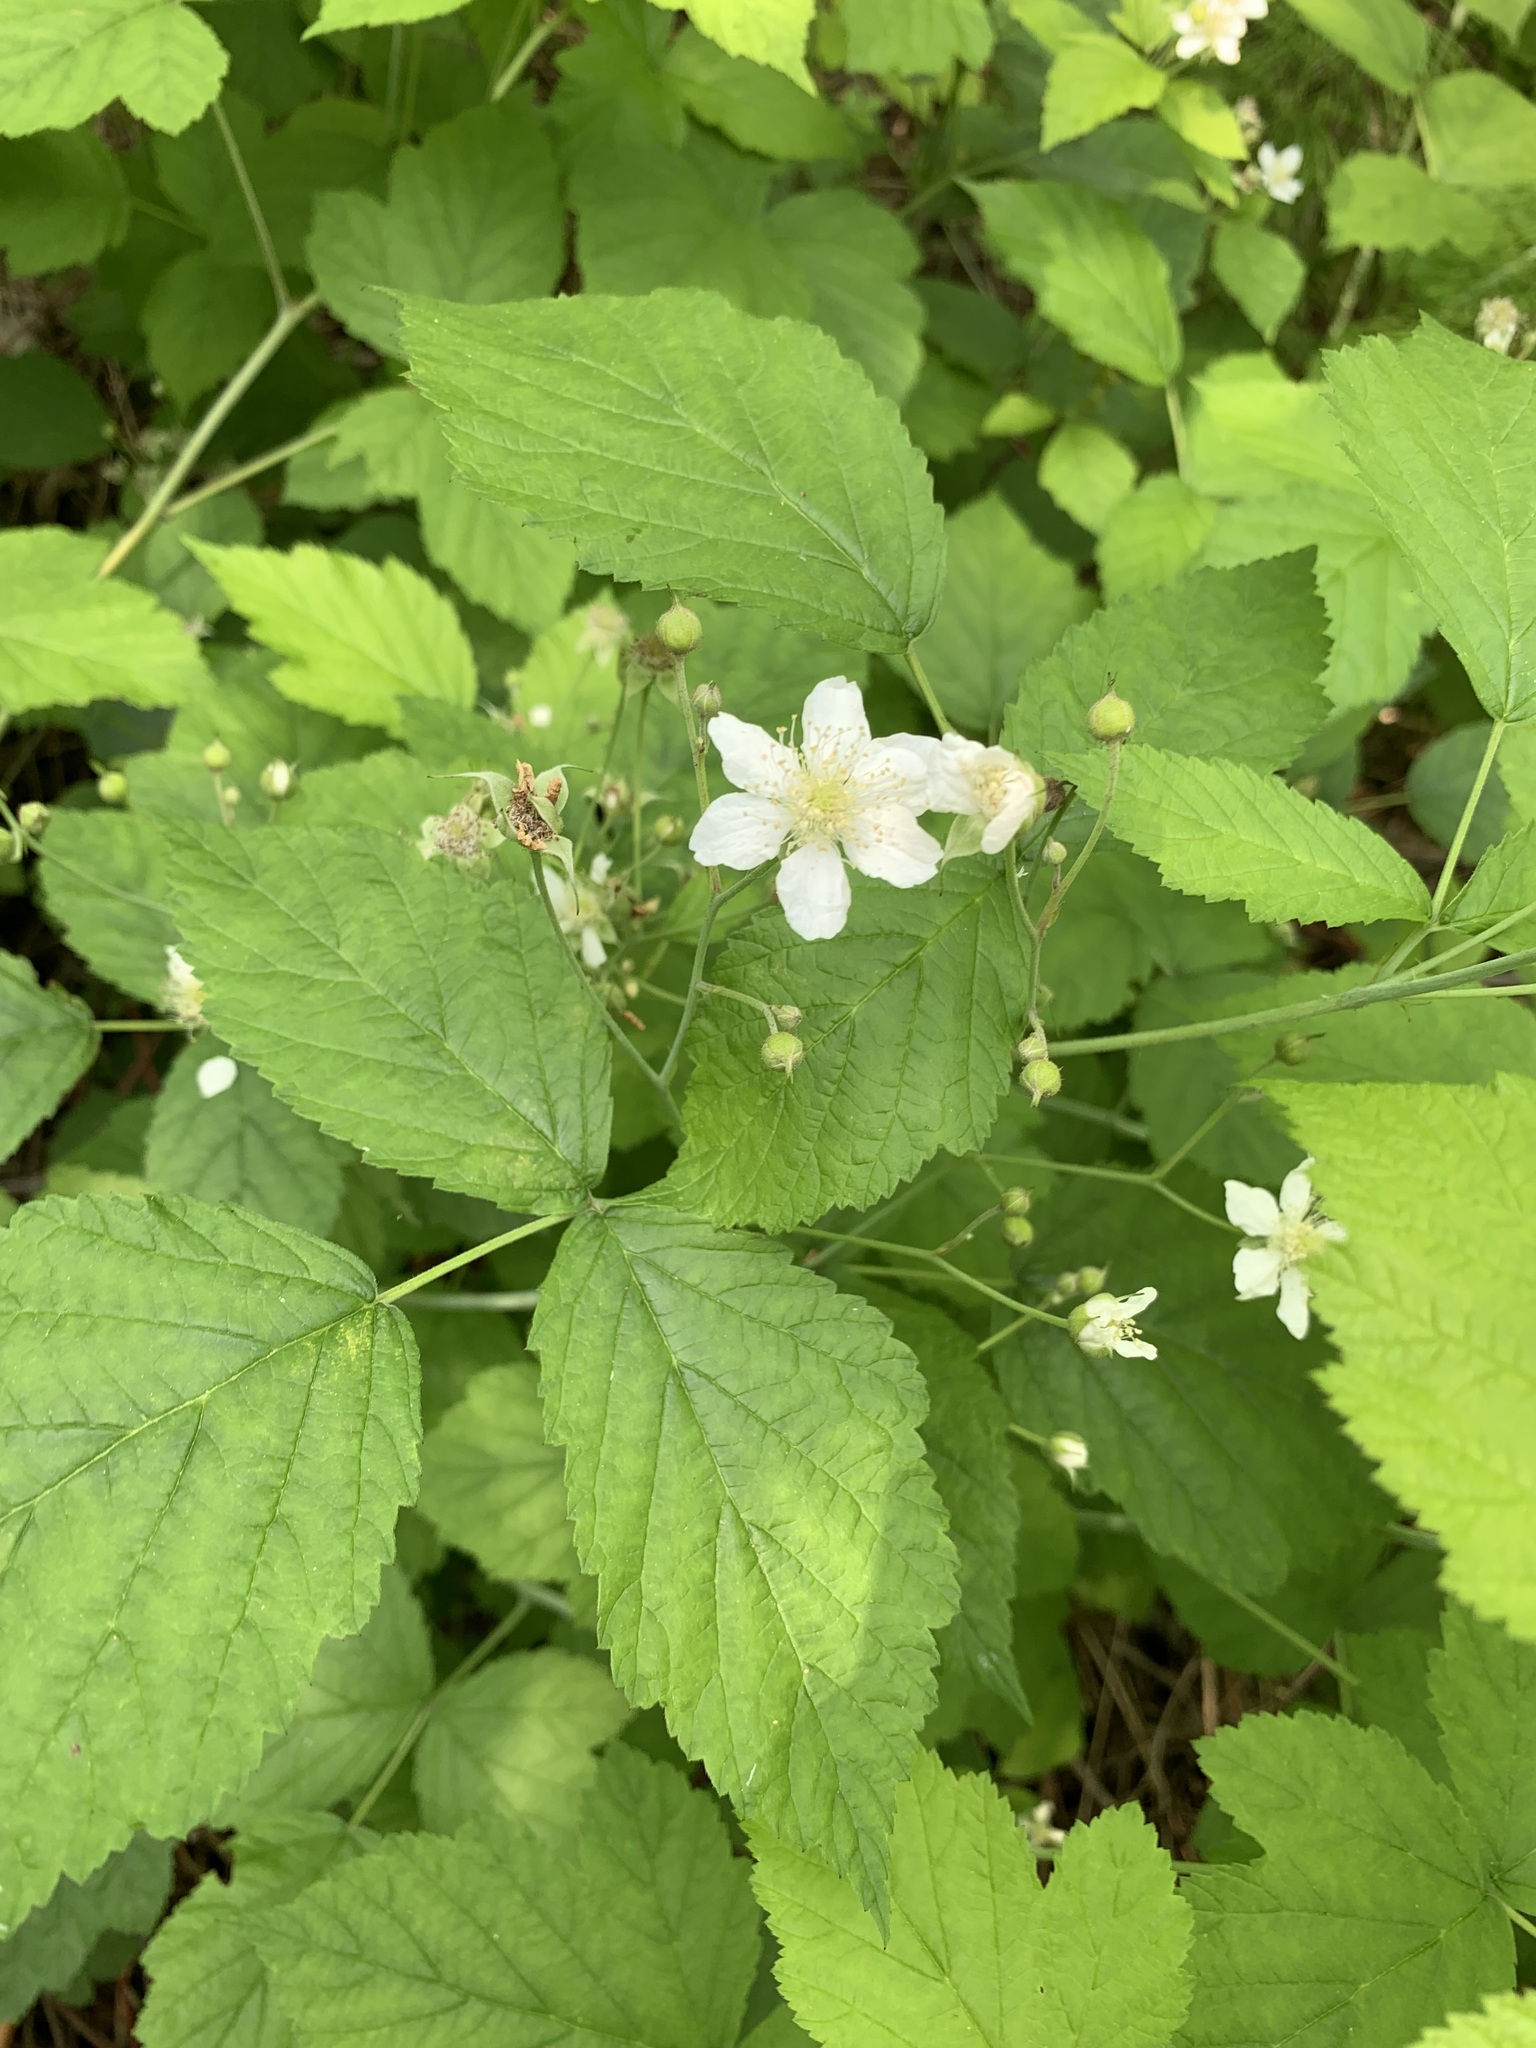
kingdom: Plantae
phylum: Tracheophyta
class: Magnoliopsida
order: Rosales
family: Rosaceae
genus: Rubus
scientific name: Rubus caesius
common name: Dewberry
